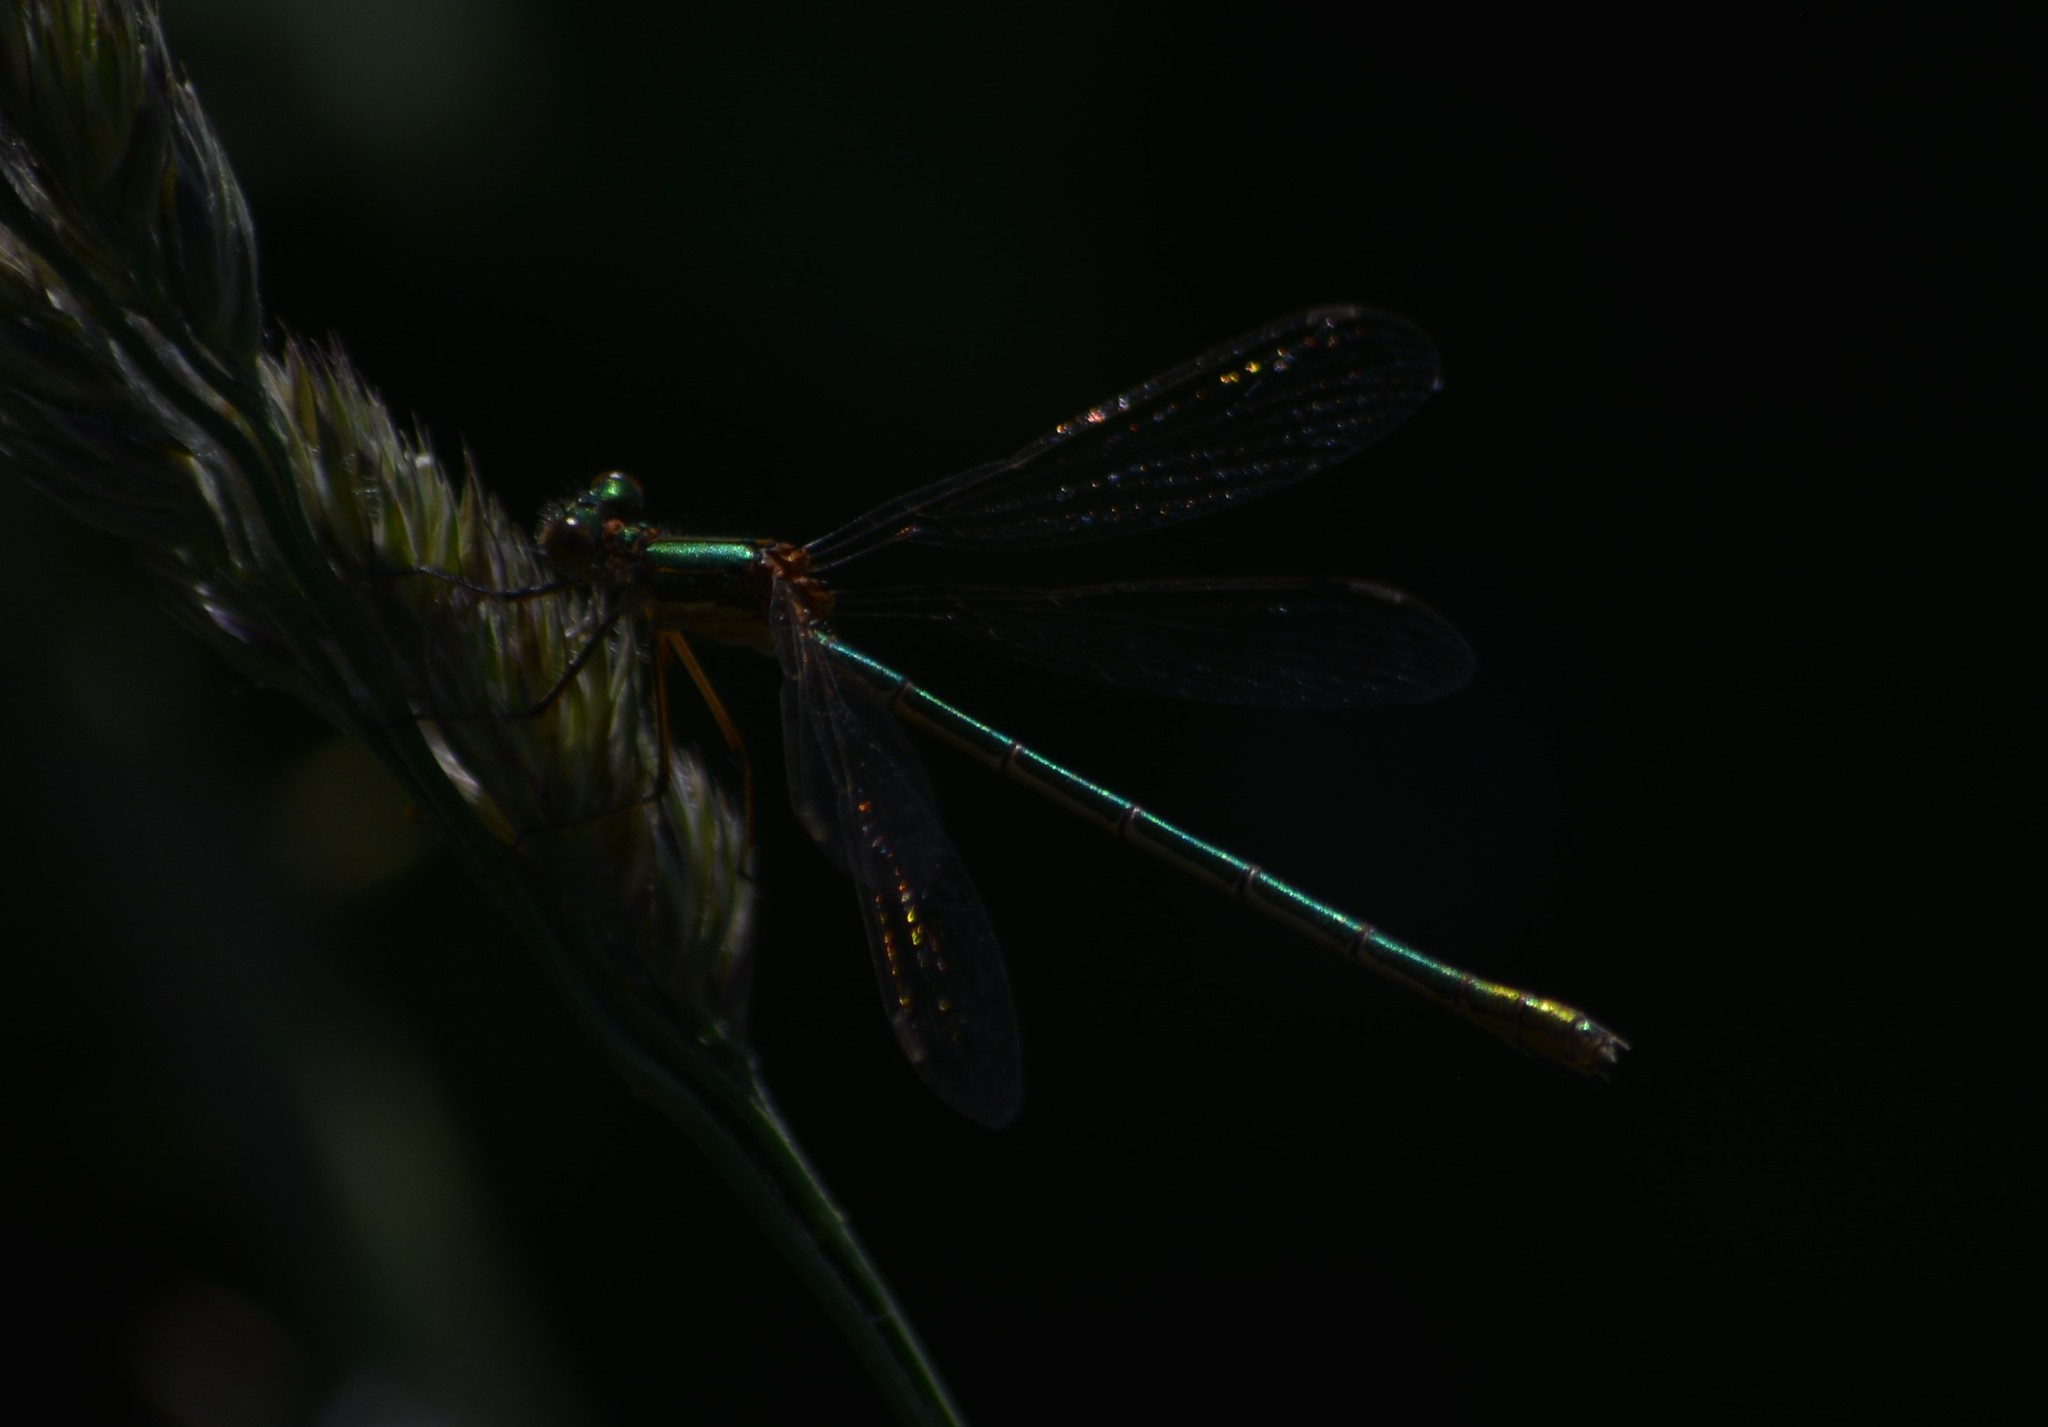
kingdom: Animalia
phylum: Arthropoda
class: Insecta
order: Odonata
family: Lestidae
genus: Lestes
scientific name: Lestes sponsa
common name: Common spreadwing
